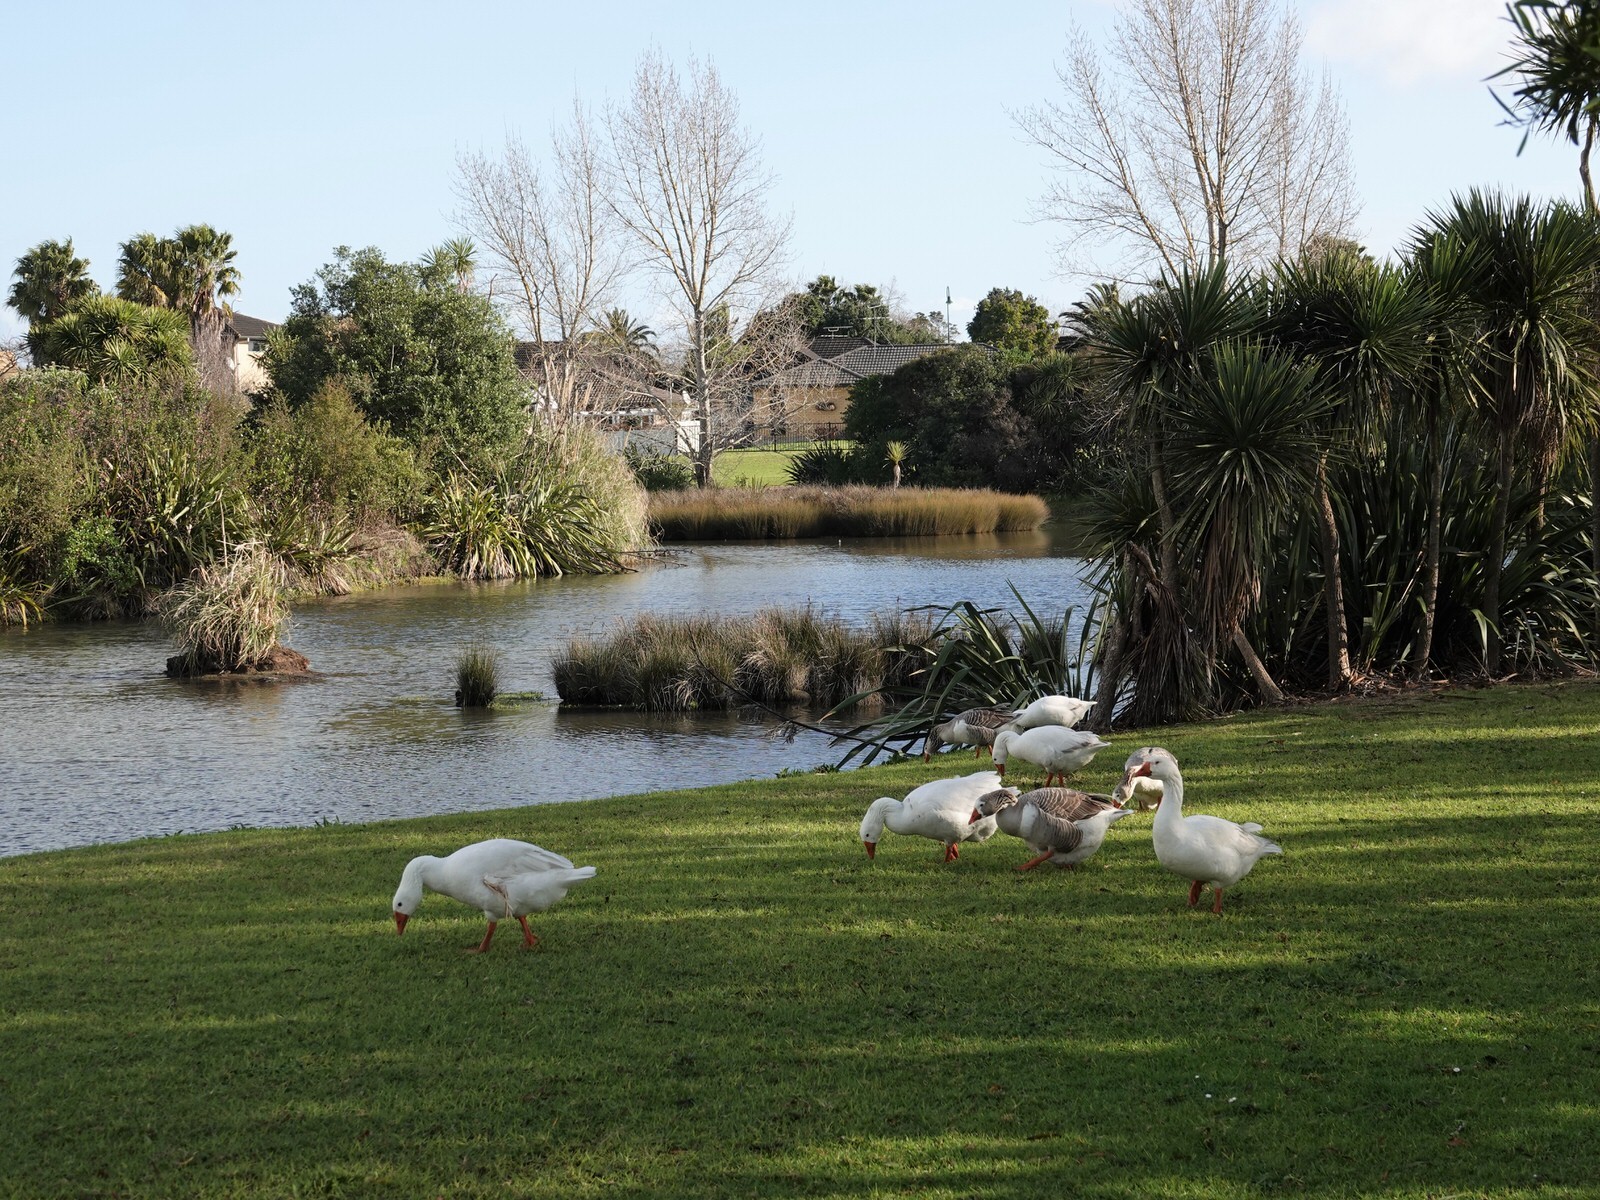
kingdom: Animalia
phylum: Chordata
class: Aves
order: Anseriformes
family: Anatidae
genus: Anser
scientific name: Anser anser
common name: Greylag goose
